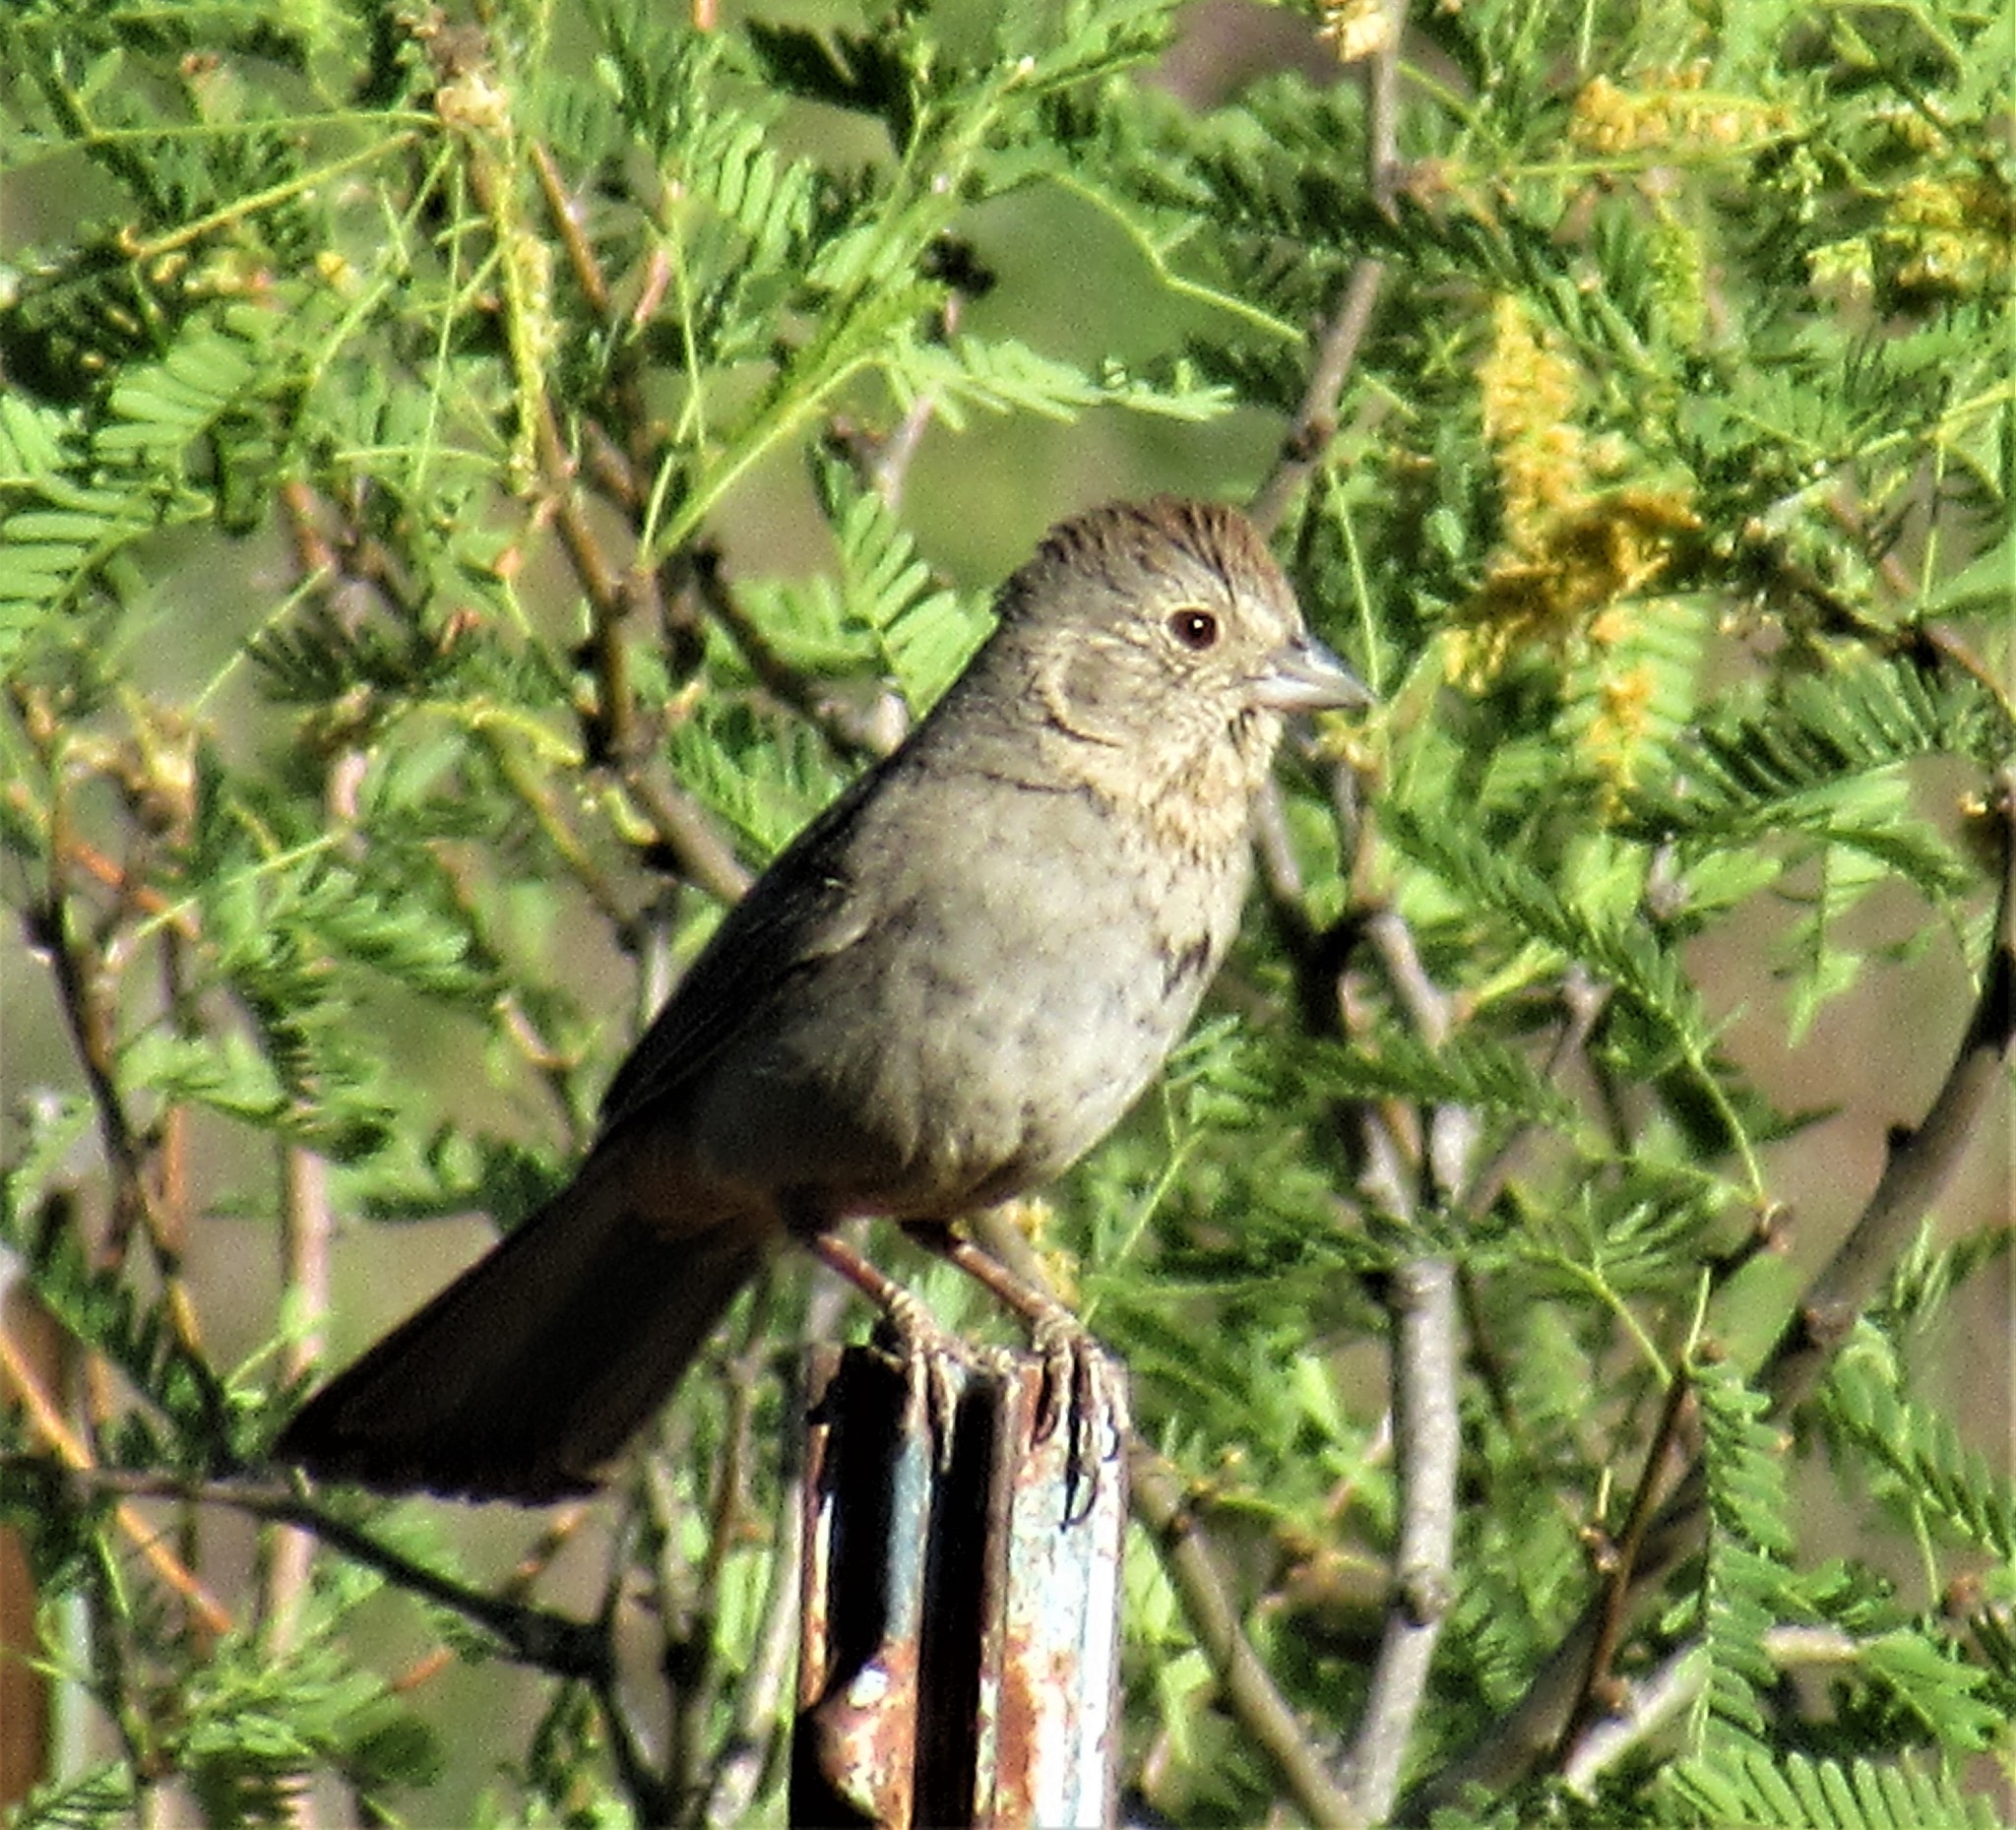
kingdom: Animalia
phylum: Chordata
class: Aves
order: Passeriformes
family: Passerellidae
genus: Melozone
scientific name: Melozone fusca
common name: Canyon towhee
